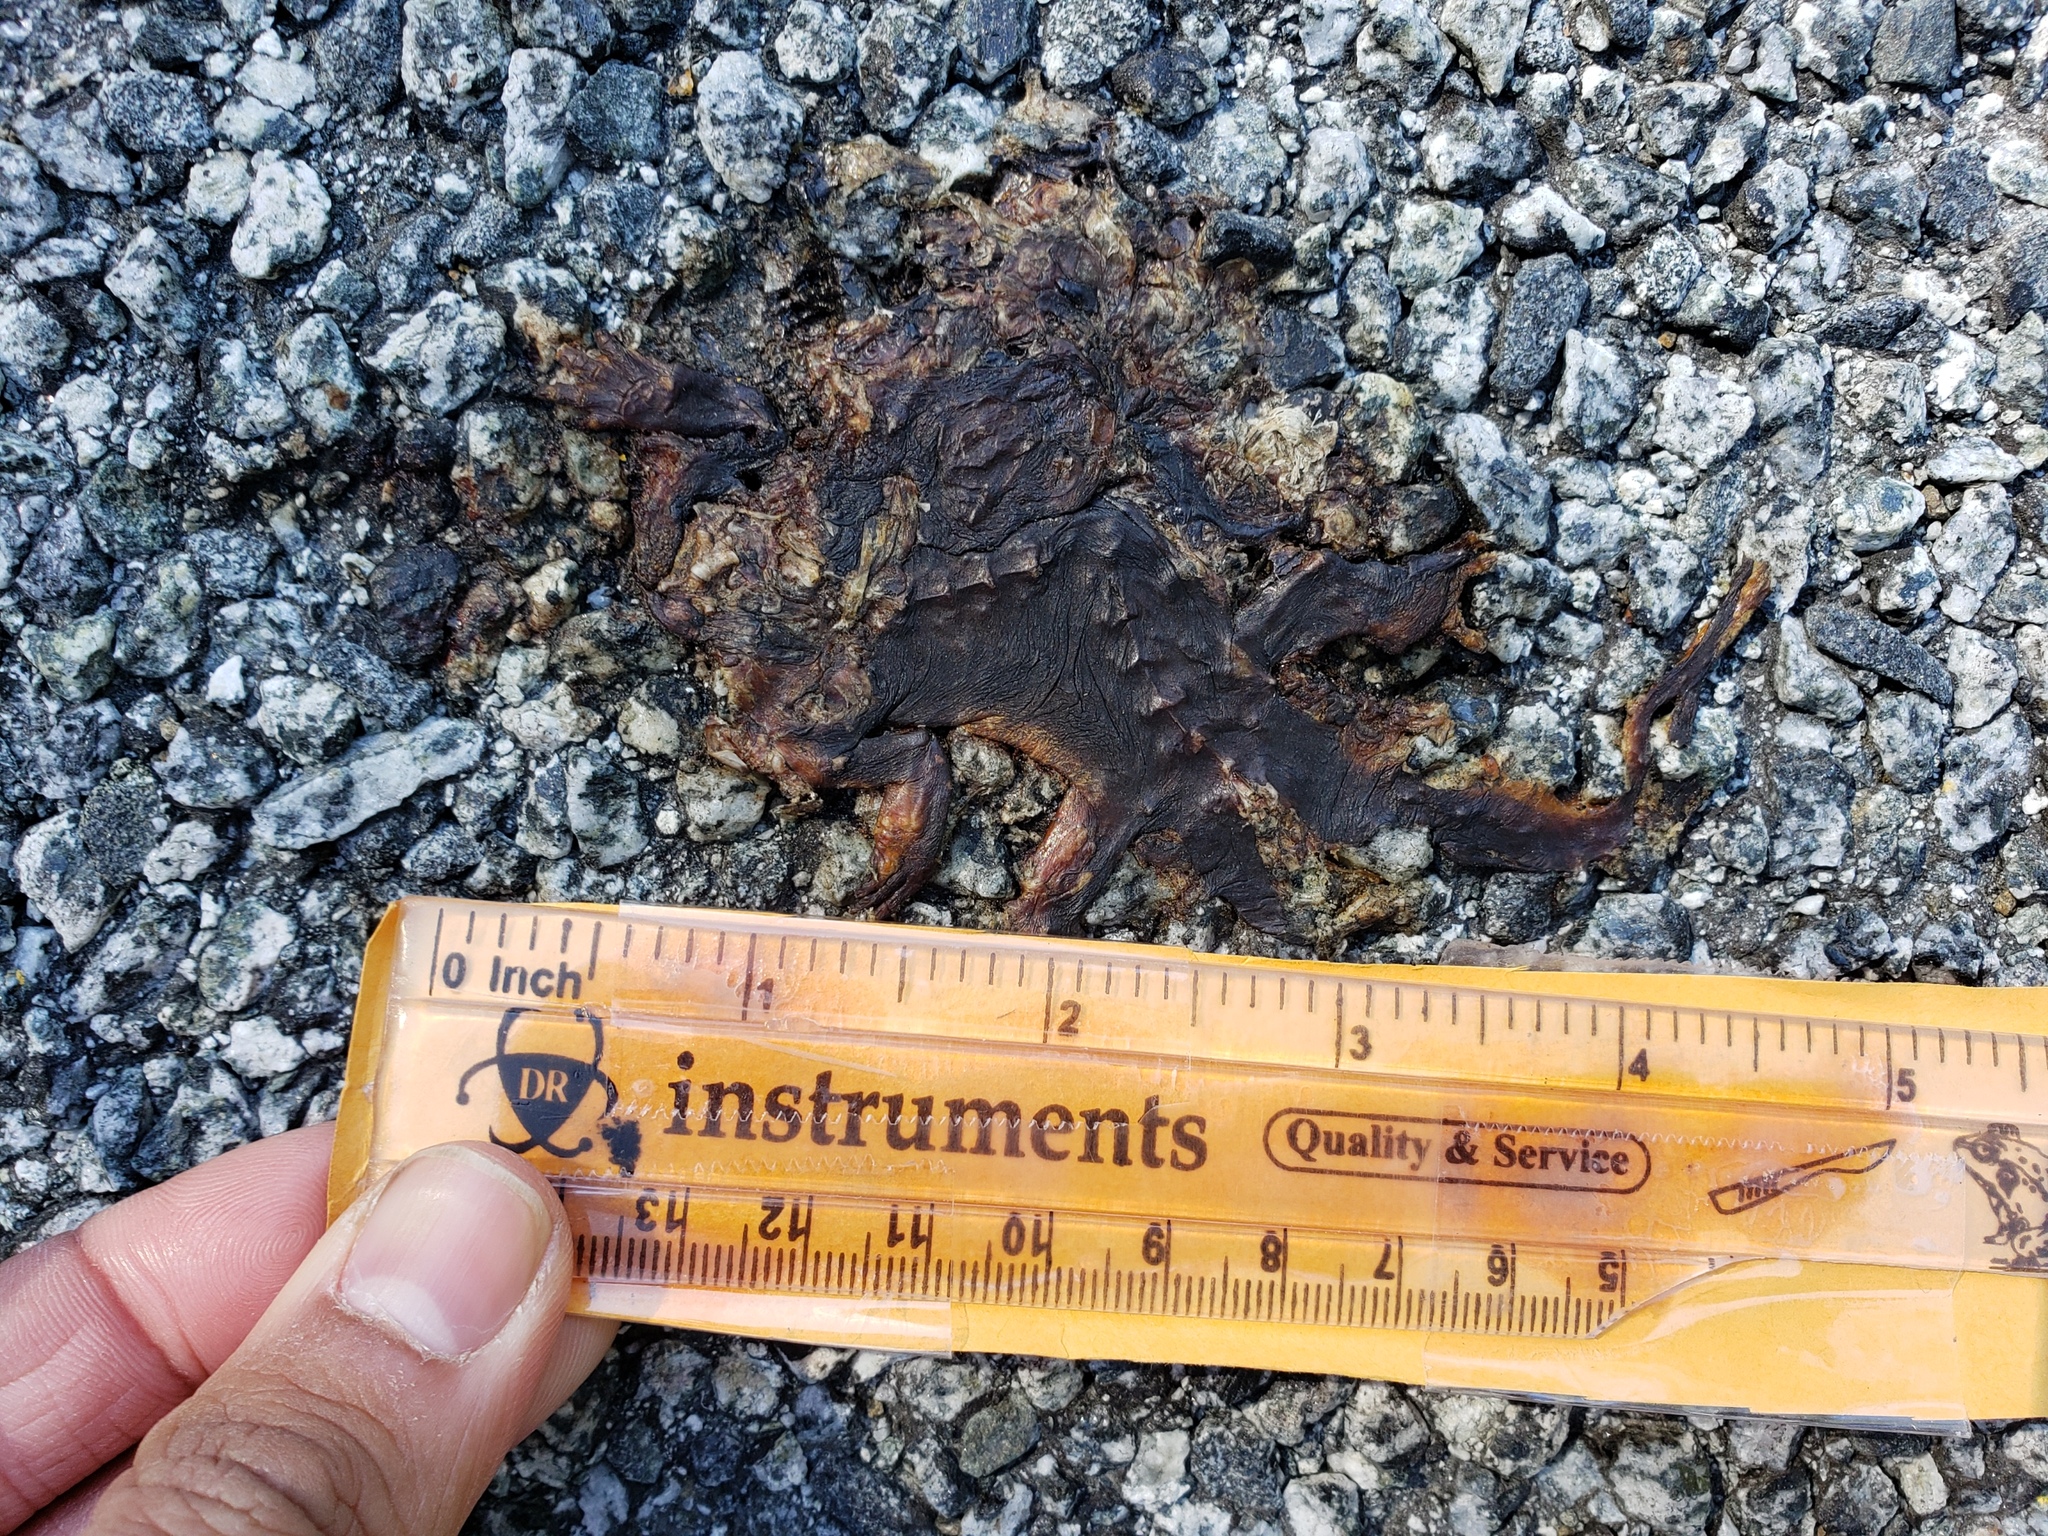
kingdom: Animalia
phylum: Chordata
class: Amphibia
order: Caudata
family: Salamandridae
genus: Taricha
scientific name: Taricha
